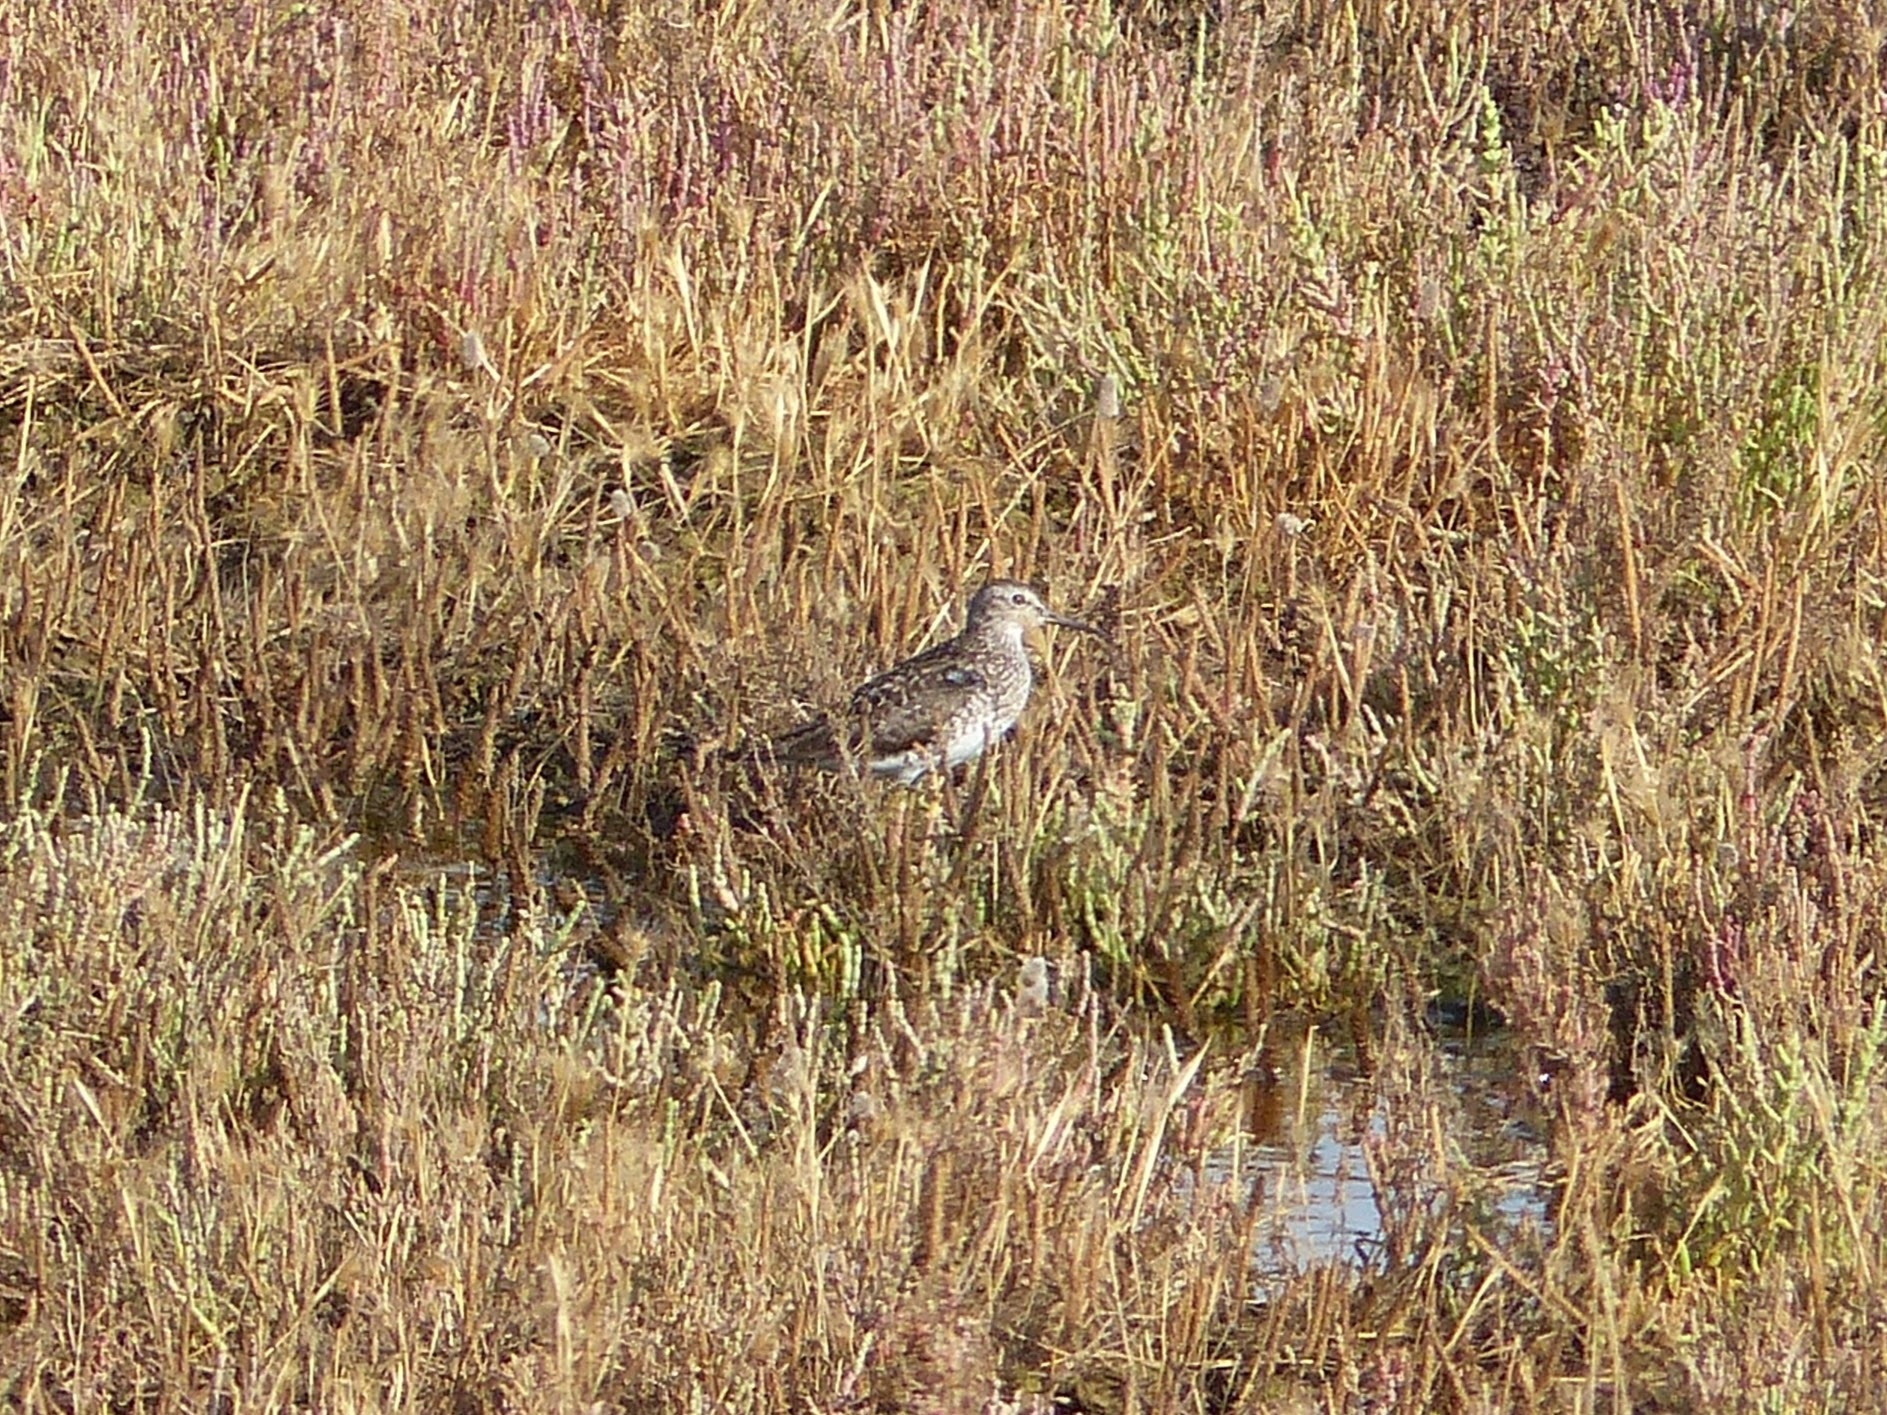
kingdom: Animalia
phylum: Chordata
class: Aves
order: Charadriiformes
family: Scolopacidae
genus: Tringa
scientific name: Tringa glareola
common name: Wood sandpiper
